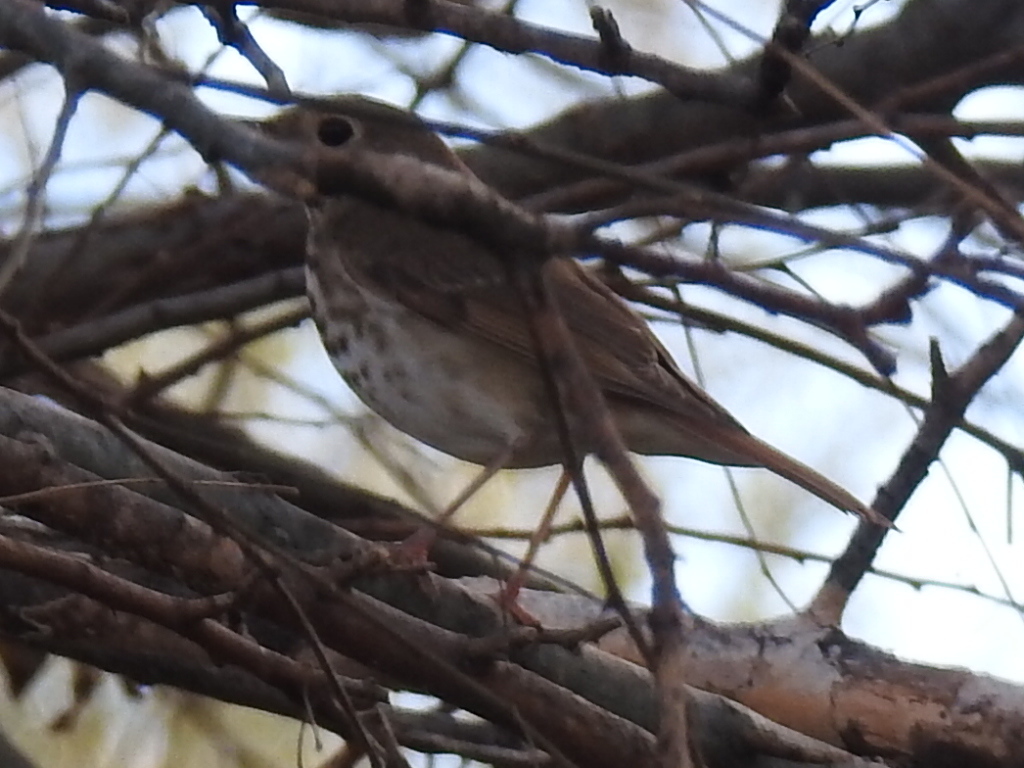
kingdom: Animalia
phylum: Chordata
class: Aves
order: Passeriformes
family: Turdidae
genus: Catharus
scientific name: Catharus guttatus
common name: Hermit thrush
